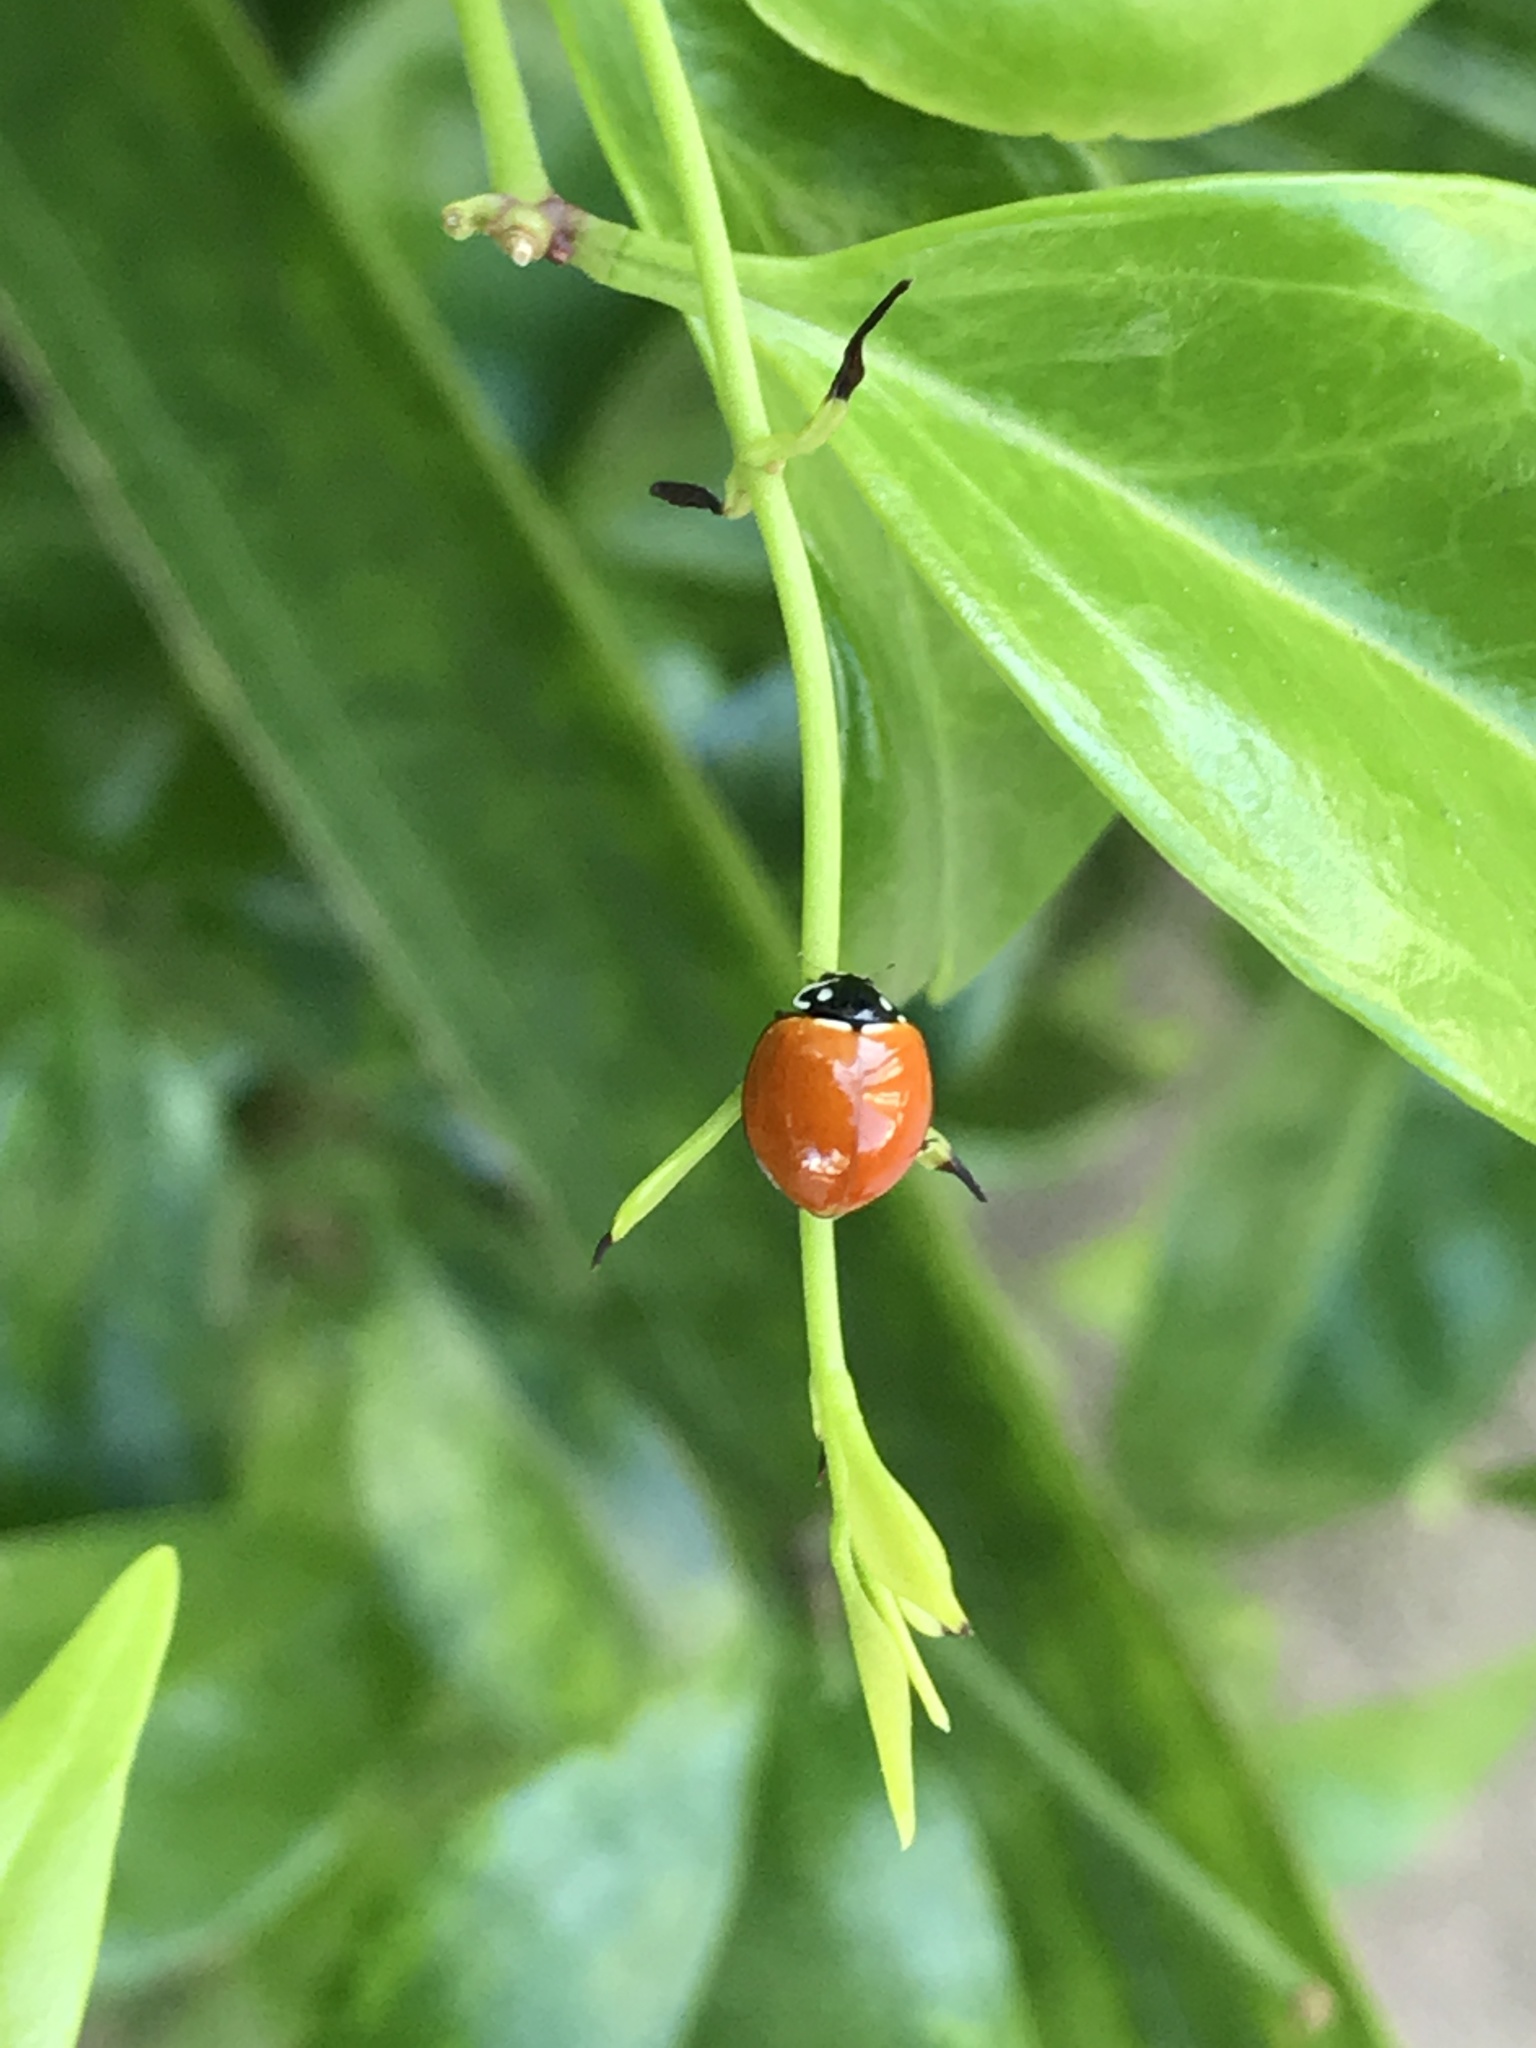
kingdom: Animalia
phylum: Arthropoda
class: Insecta
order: Coleoptera
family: Coccinellidae
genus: Cycloneda
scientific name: Cycloneda sanguinea
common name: Ladybird beetle
